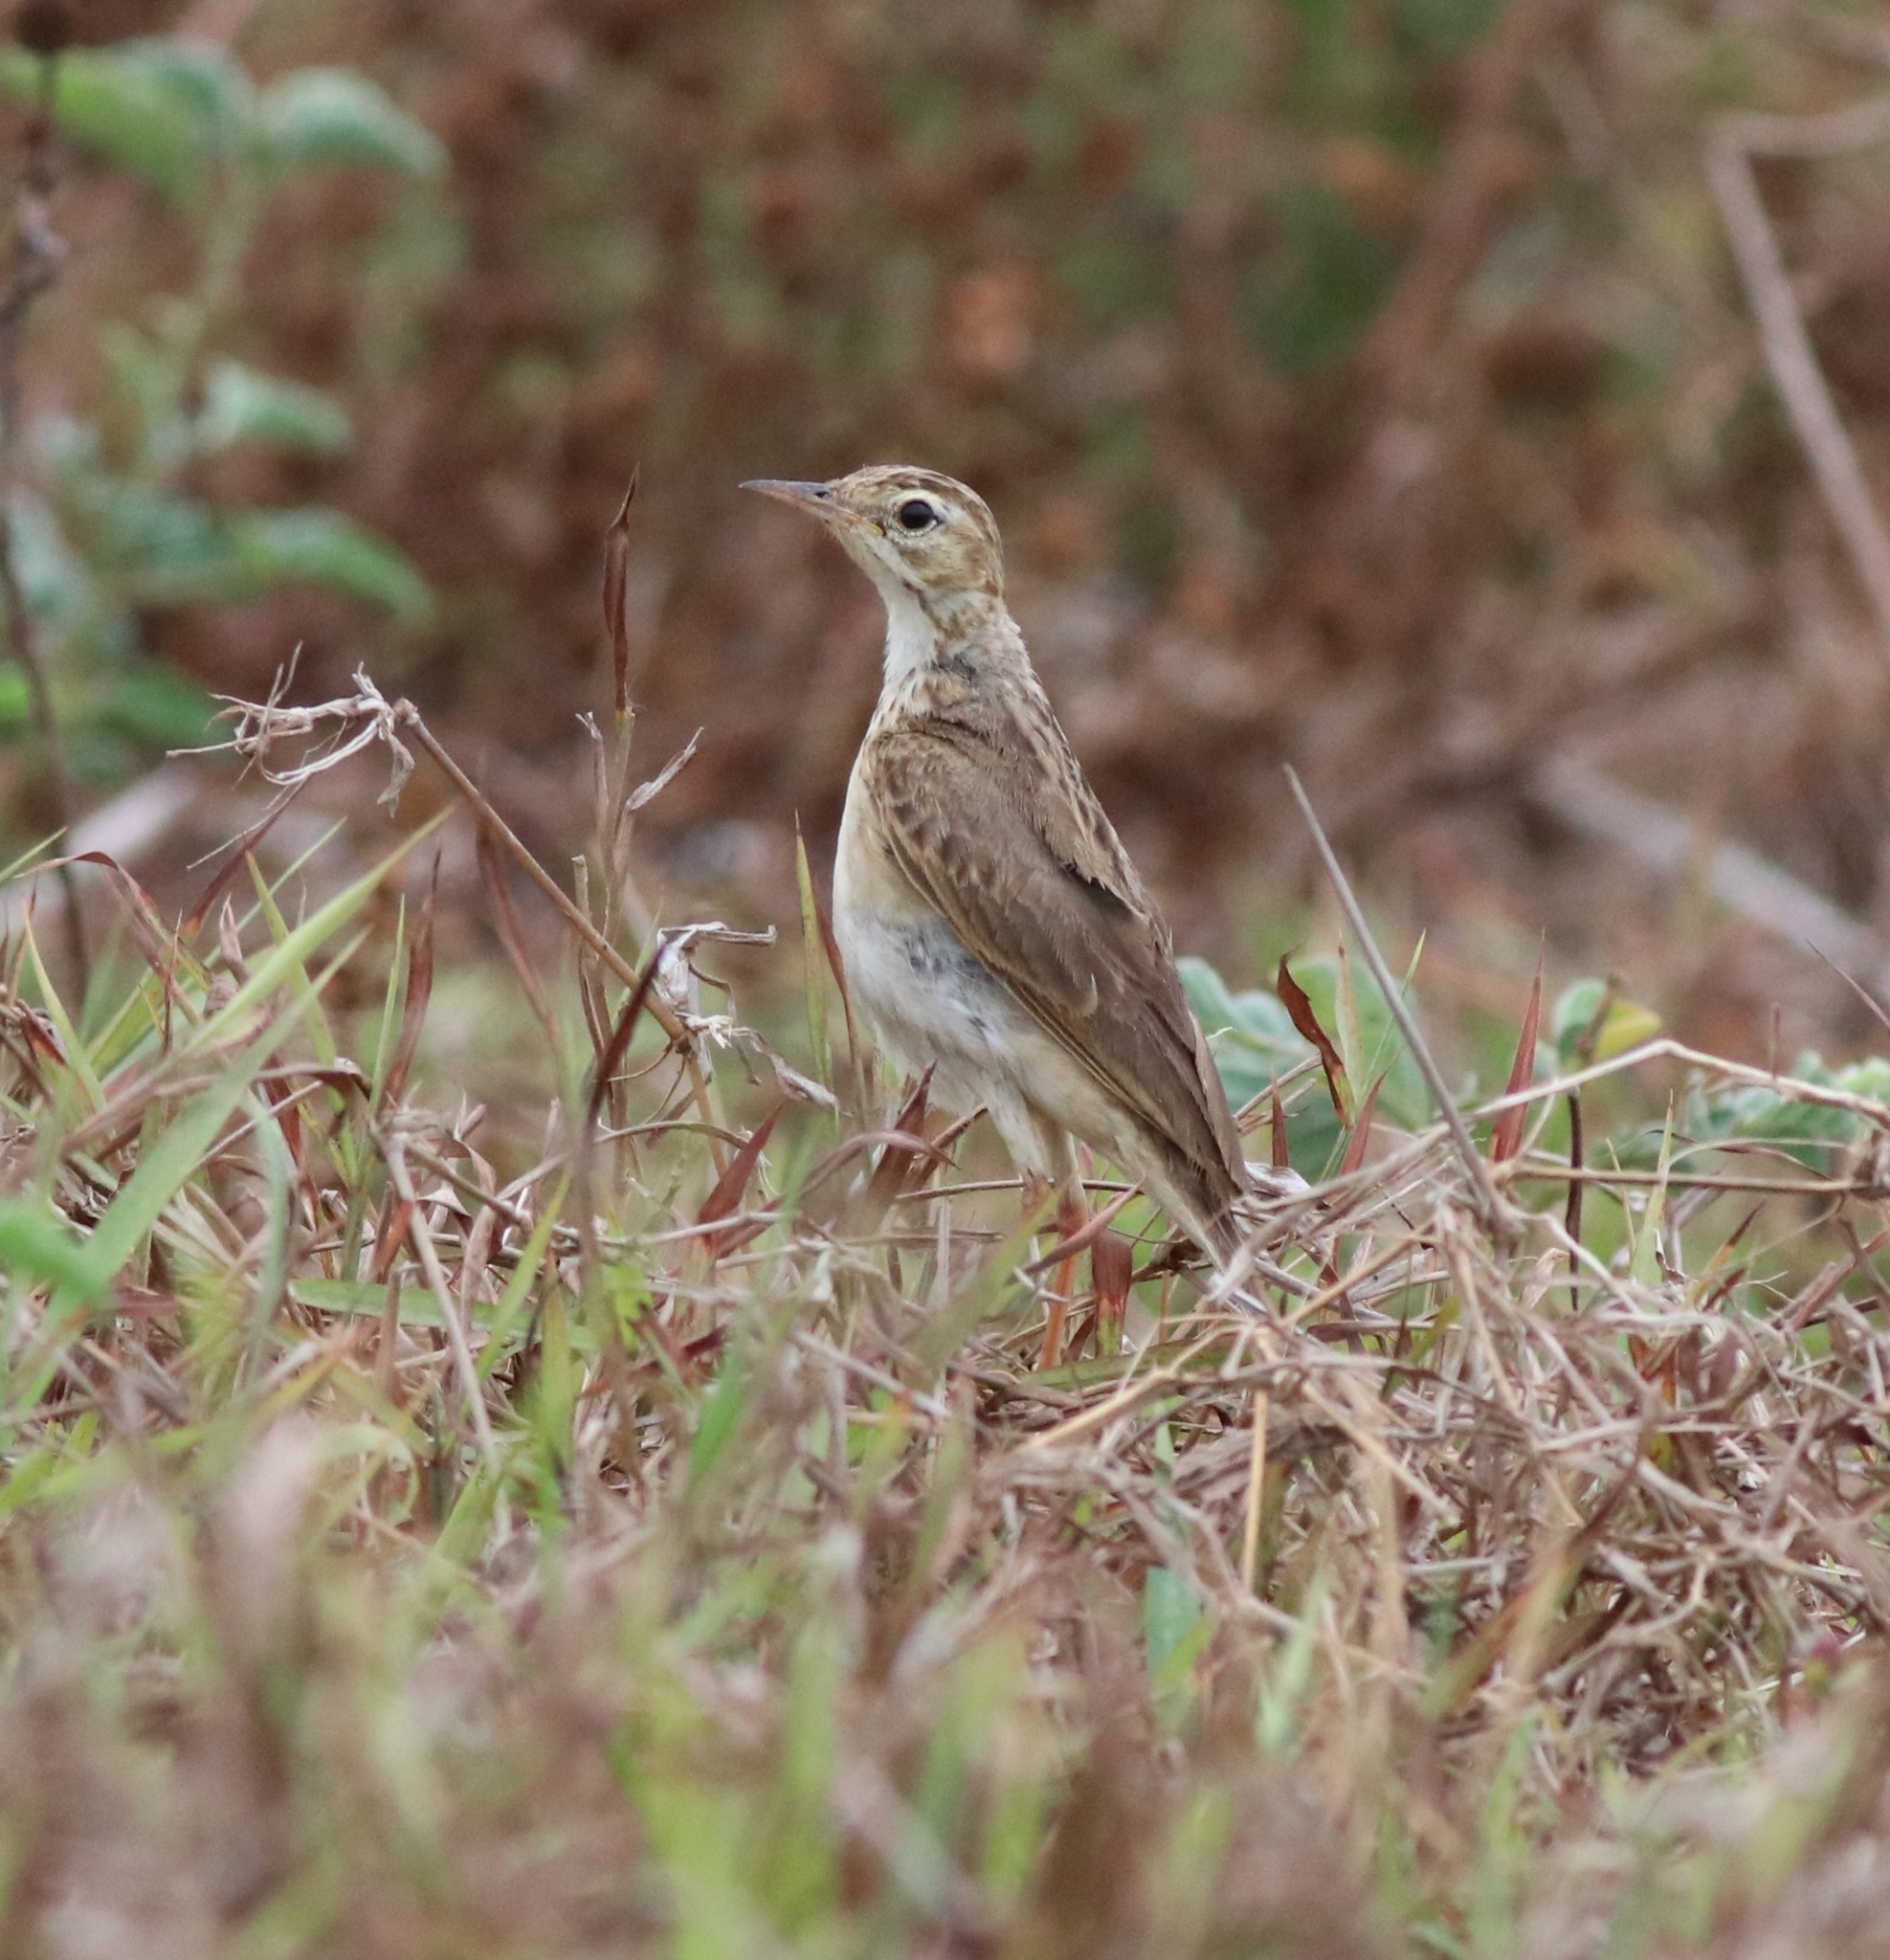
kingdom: Animalia
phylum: Chordata
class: Aves
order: Passeriformes
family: Motacillidae
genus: Anthus
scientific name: Anthus rufulus
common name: Paddyfield pipit
